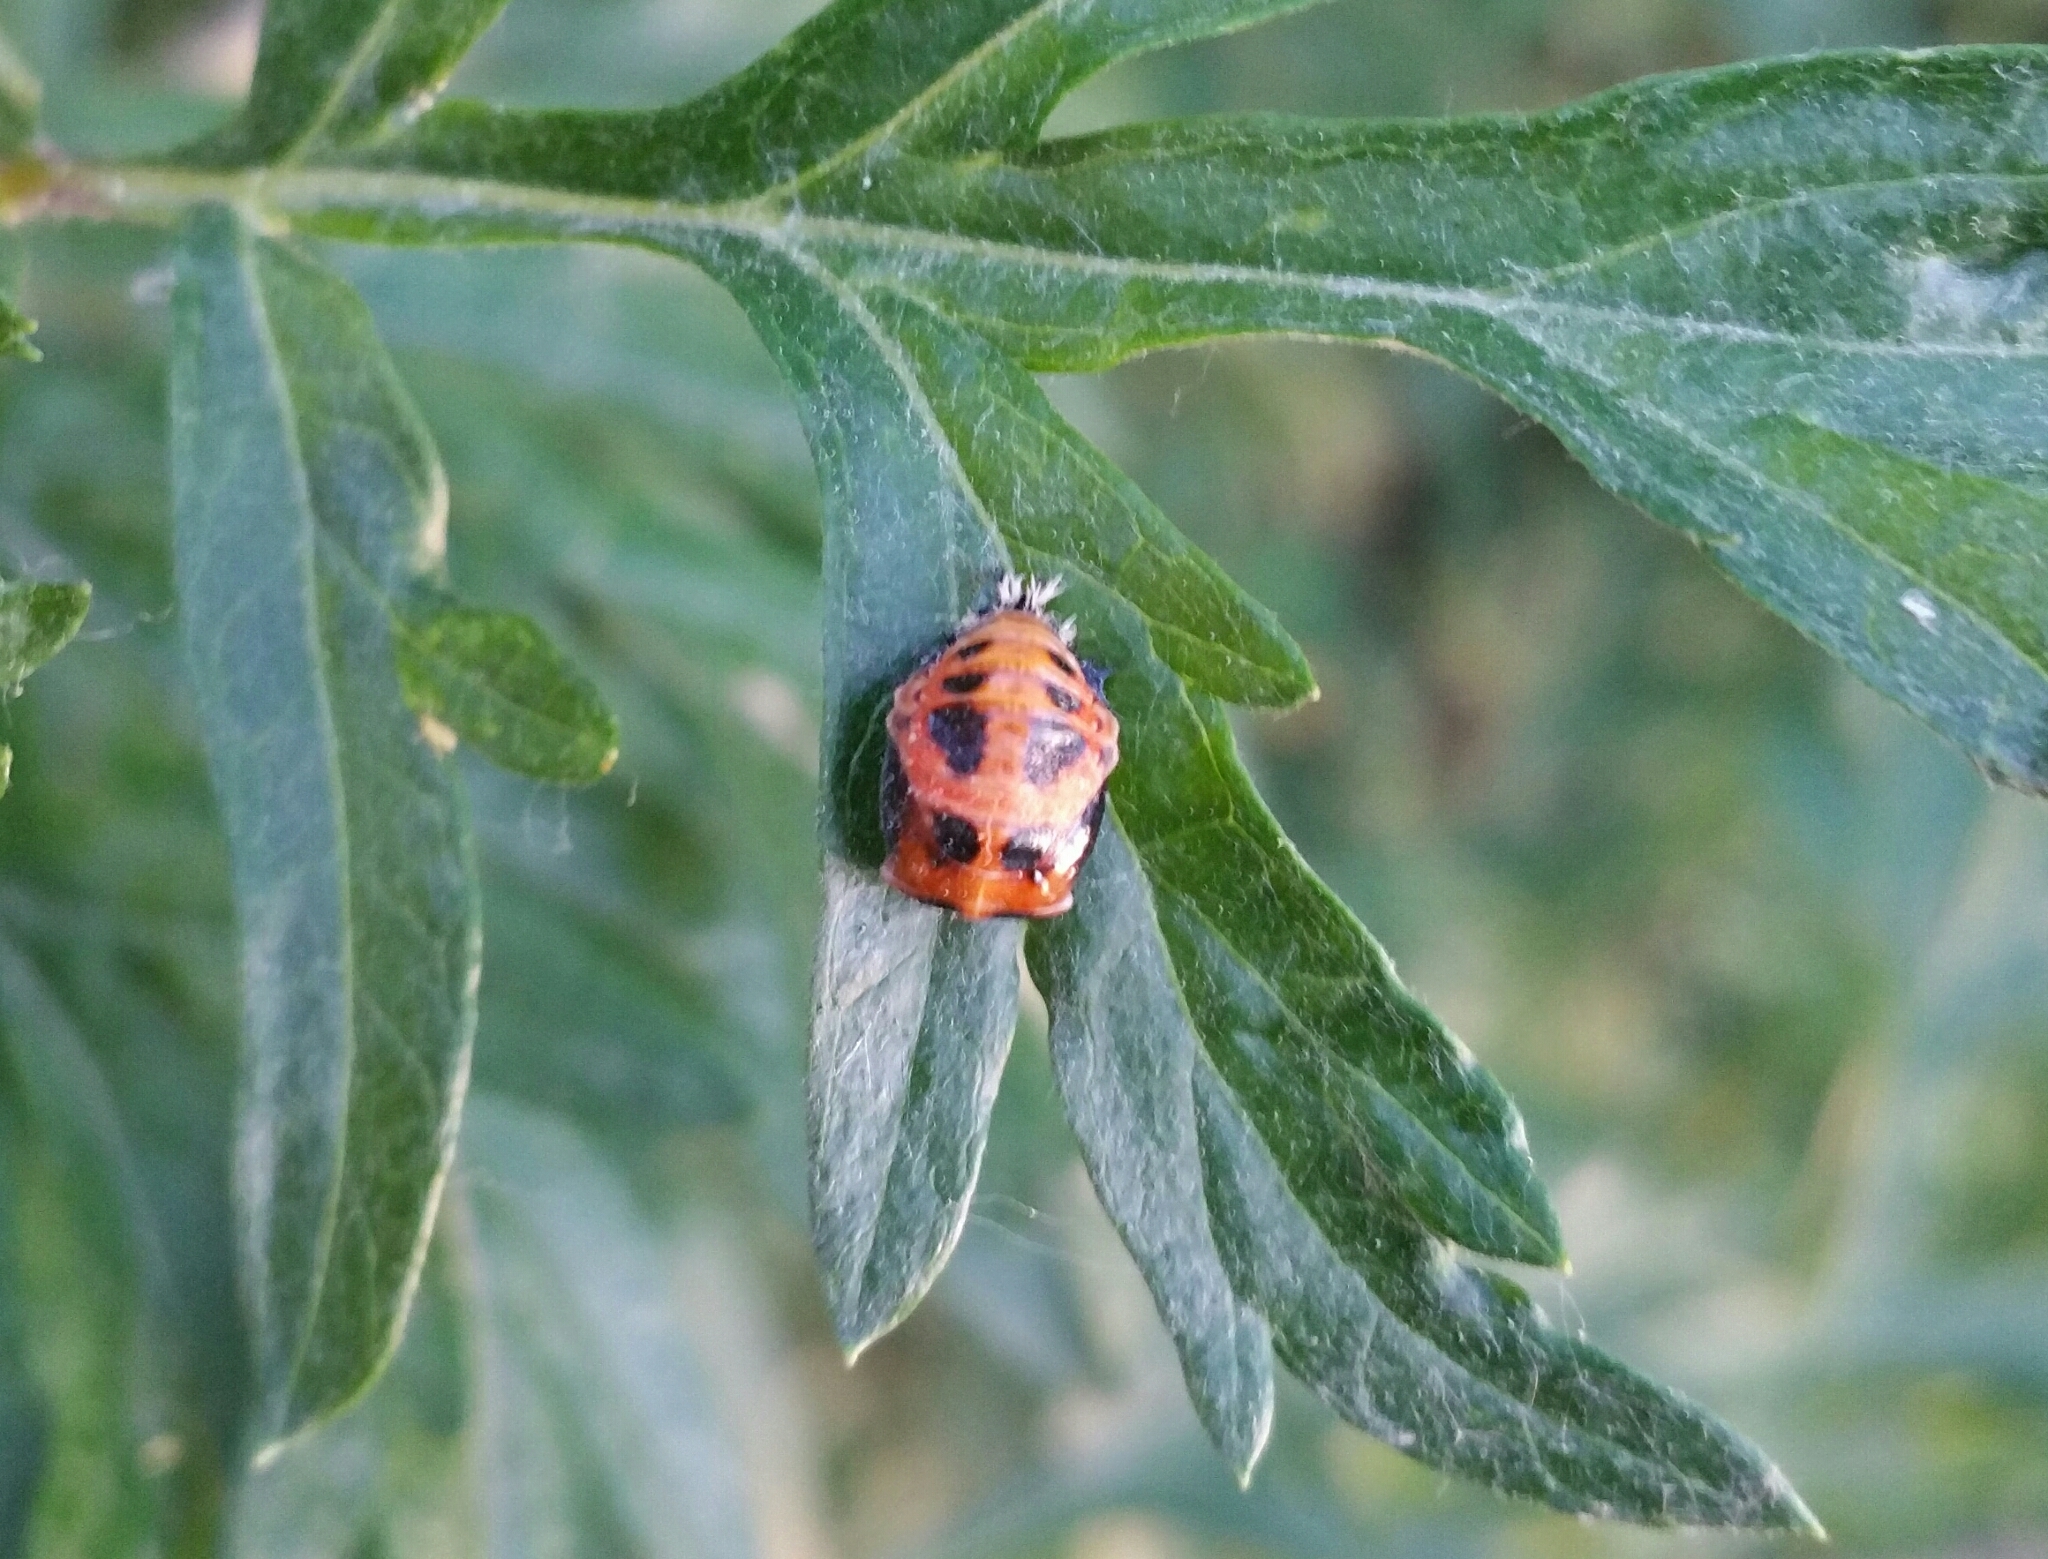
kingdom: Animalia
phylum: Arthropoda
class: Insecta
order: Coleoptera
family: Coccinellidae
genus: Harmonia
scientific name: Harmonia axyridis
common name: Harlequin ladybird
